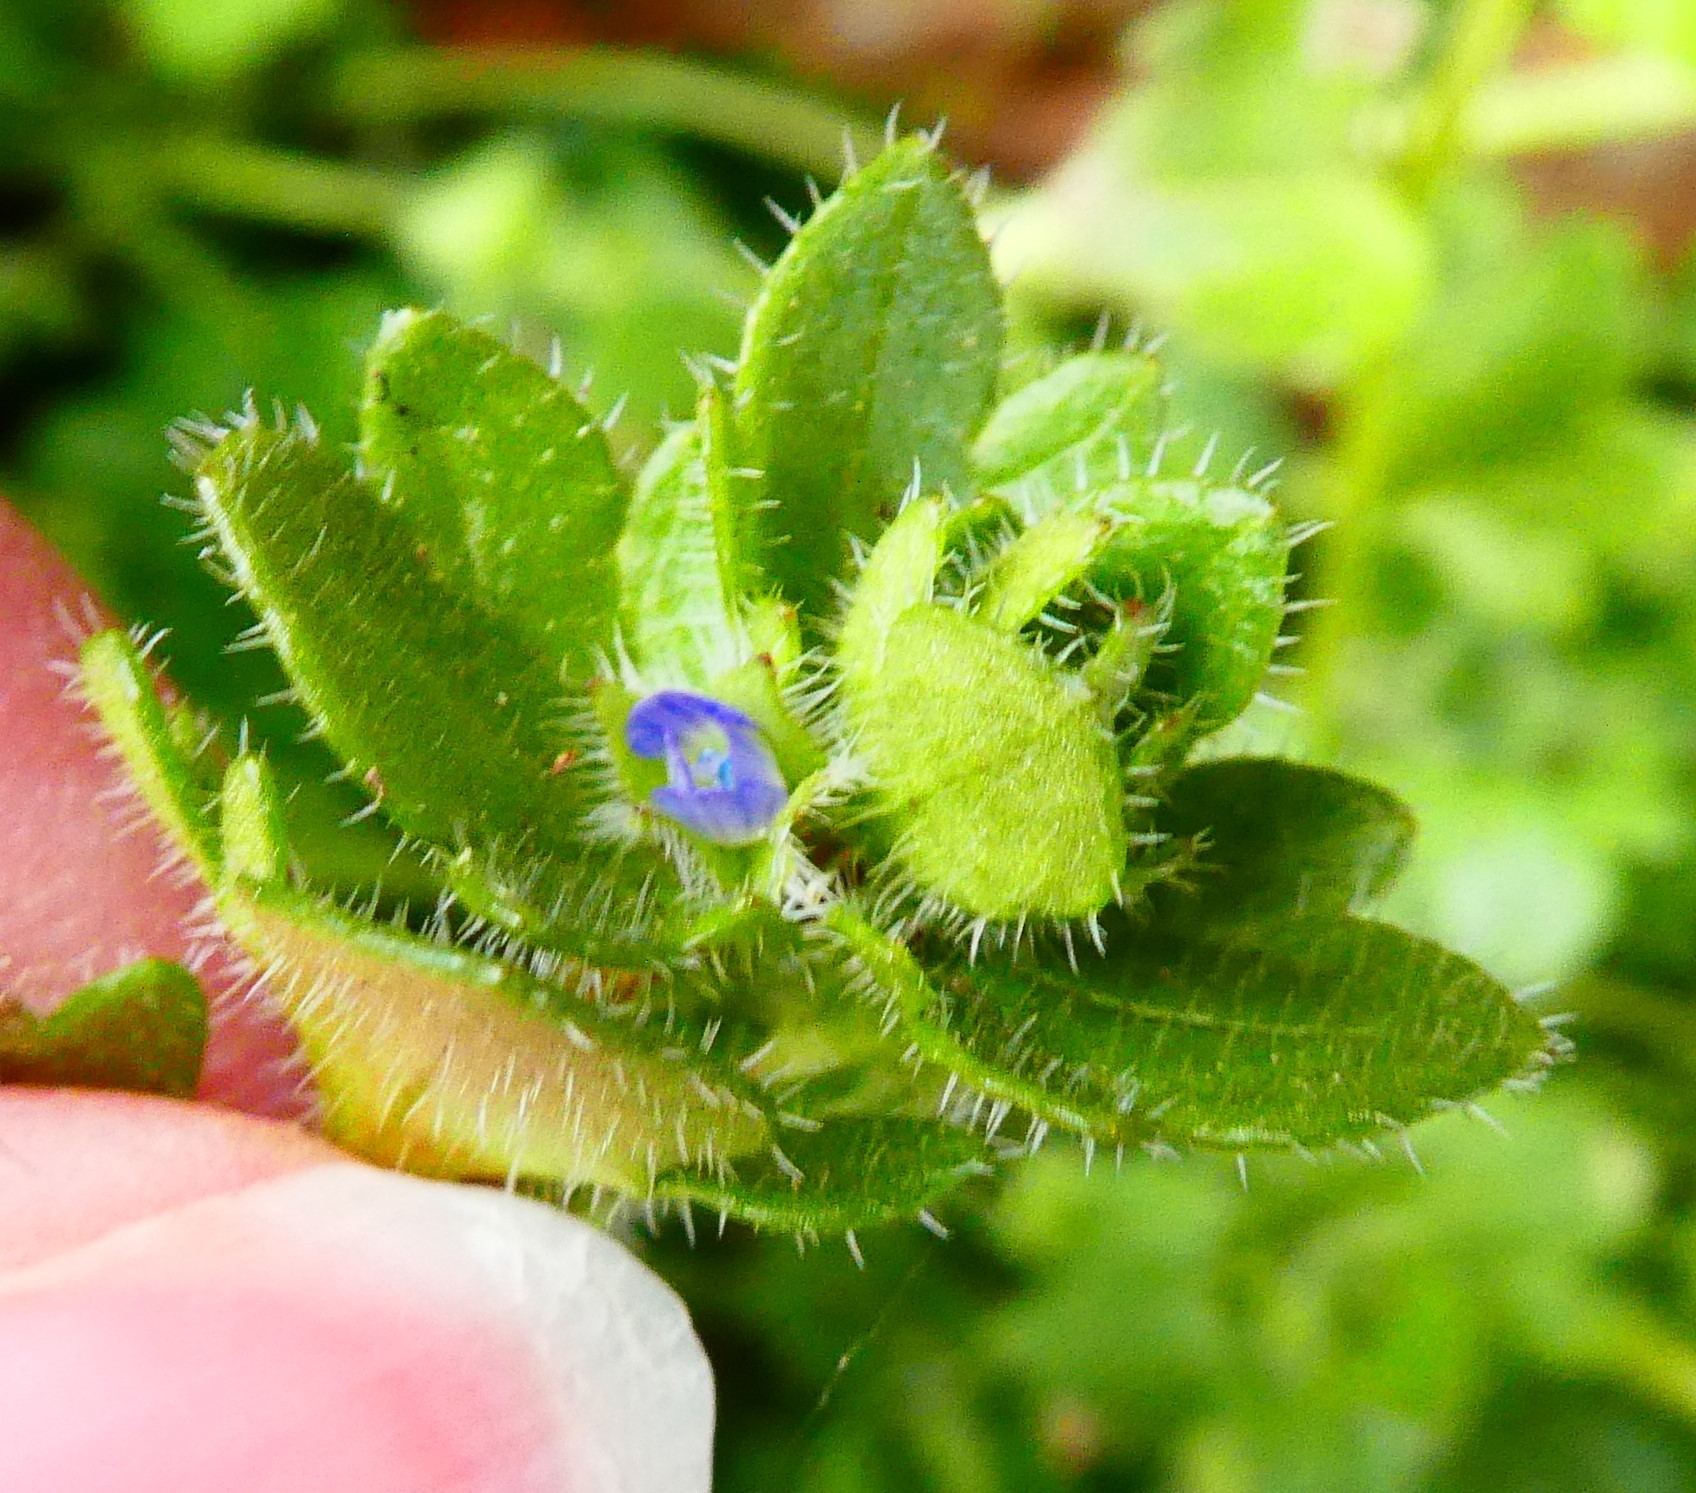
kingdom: Plantae
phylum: Tracheophyta
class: Magnoliopsida
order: Lamiales
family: Plantaginaceae
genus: Veronica
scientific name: Veronica hederifolia
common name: Ivy-leaved speedwell
